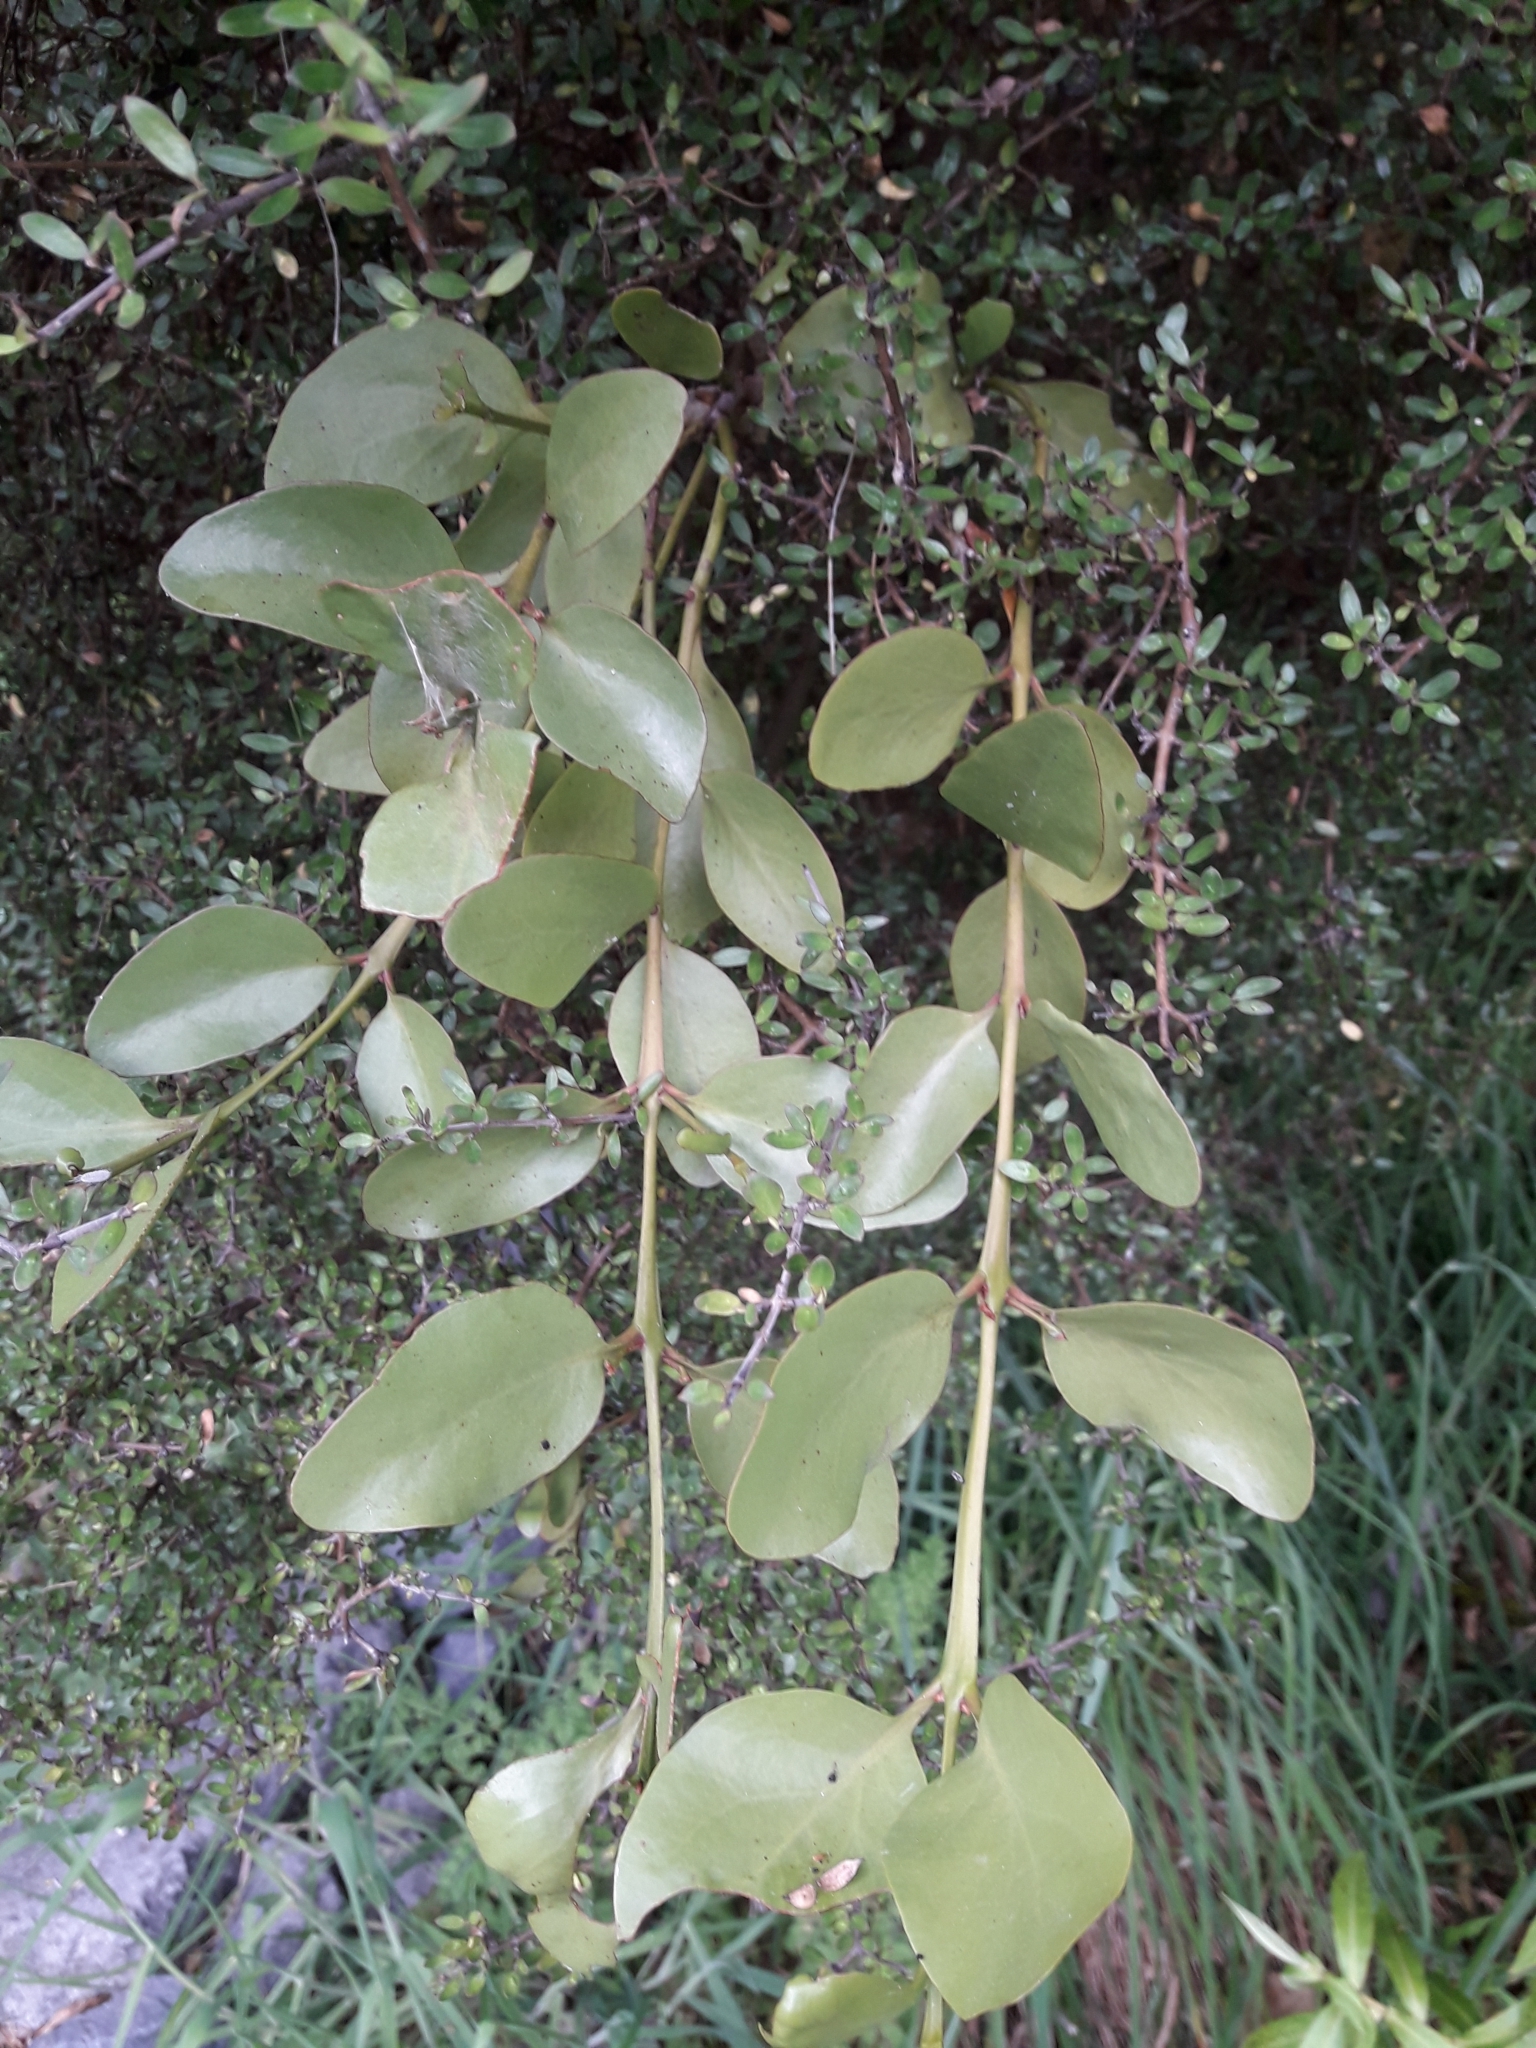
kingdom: Plantae
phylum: Tracheophyta
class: Magnoliopsida
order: Santalales
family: Loranthaceae
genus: Ileostylus
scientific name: Ileostylus micranthus
